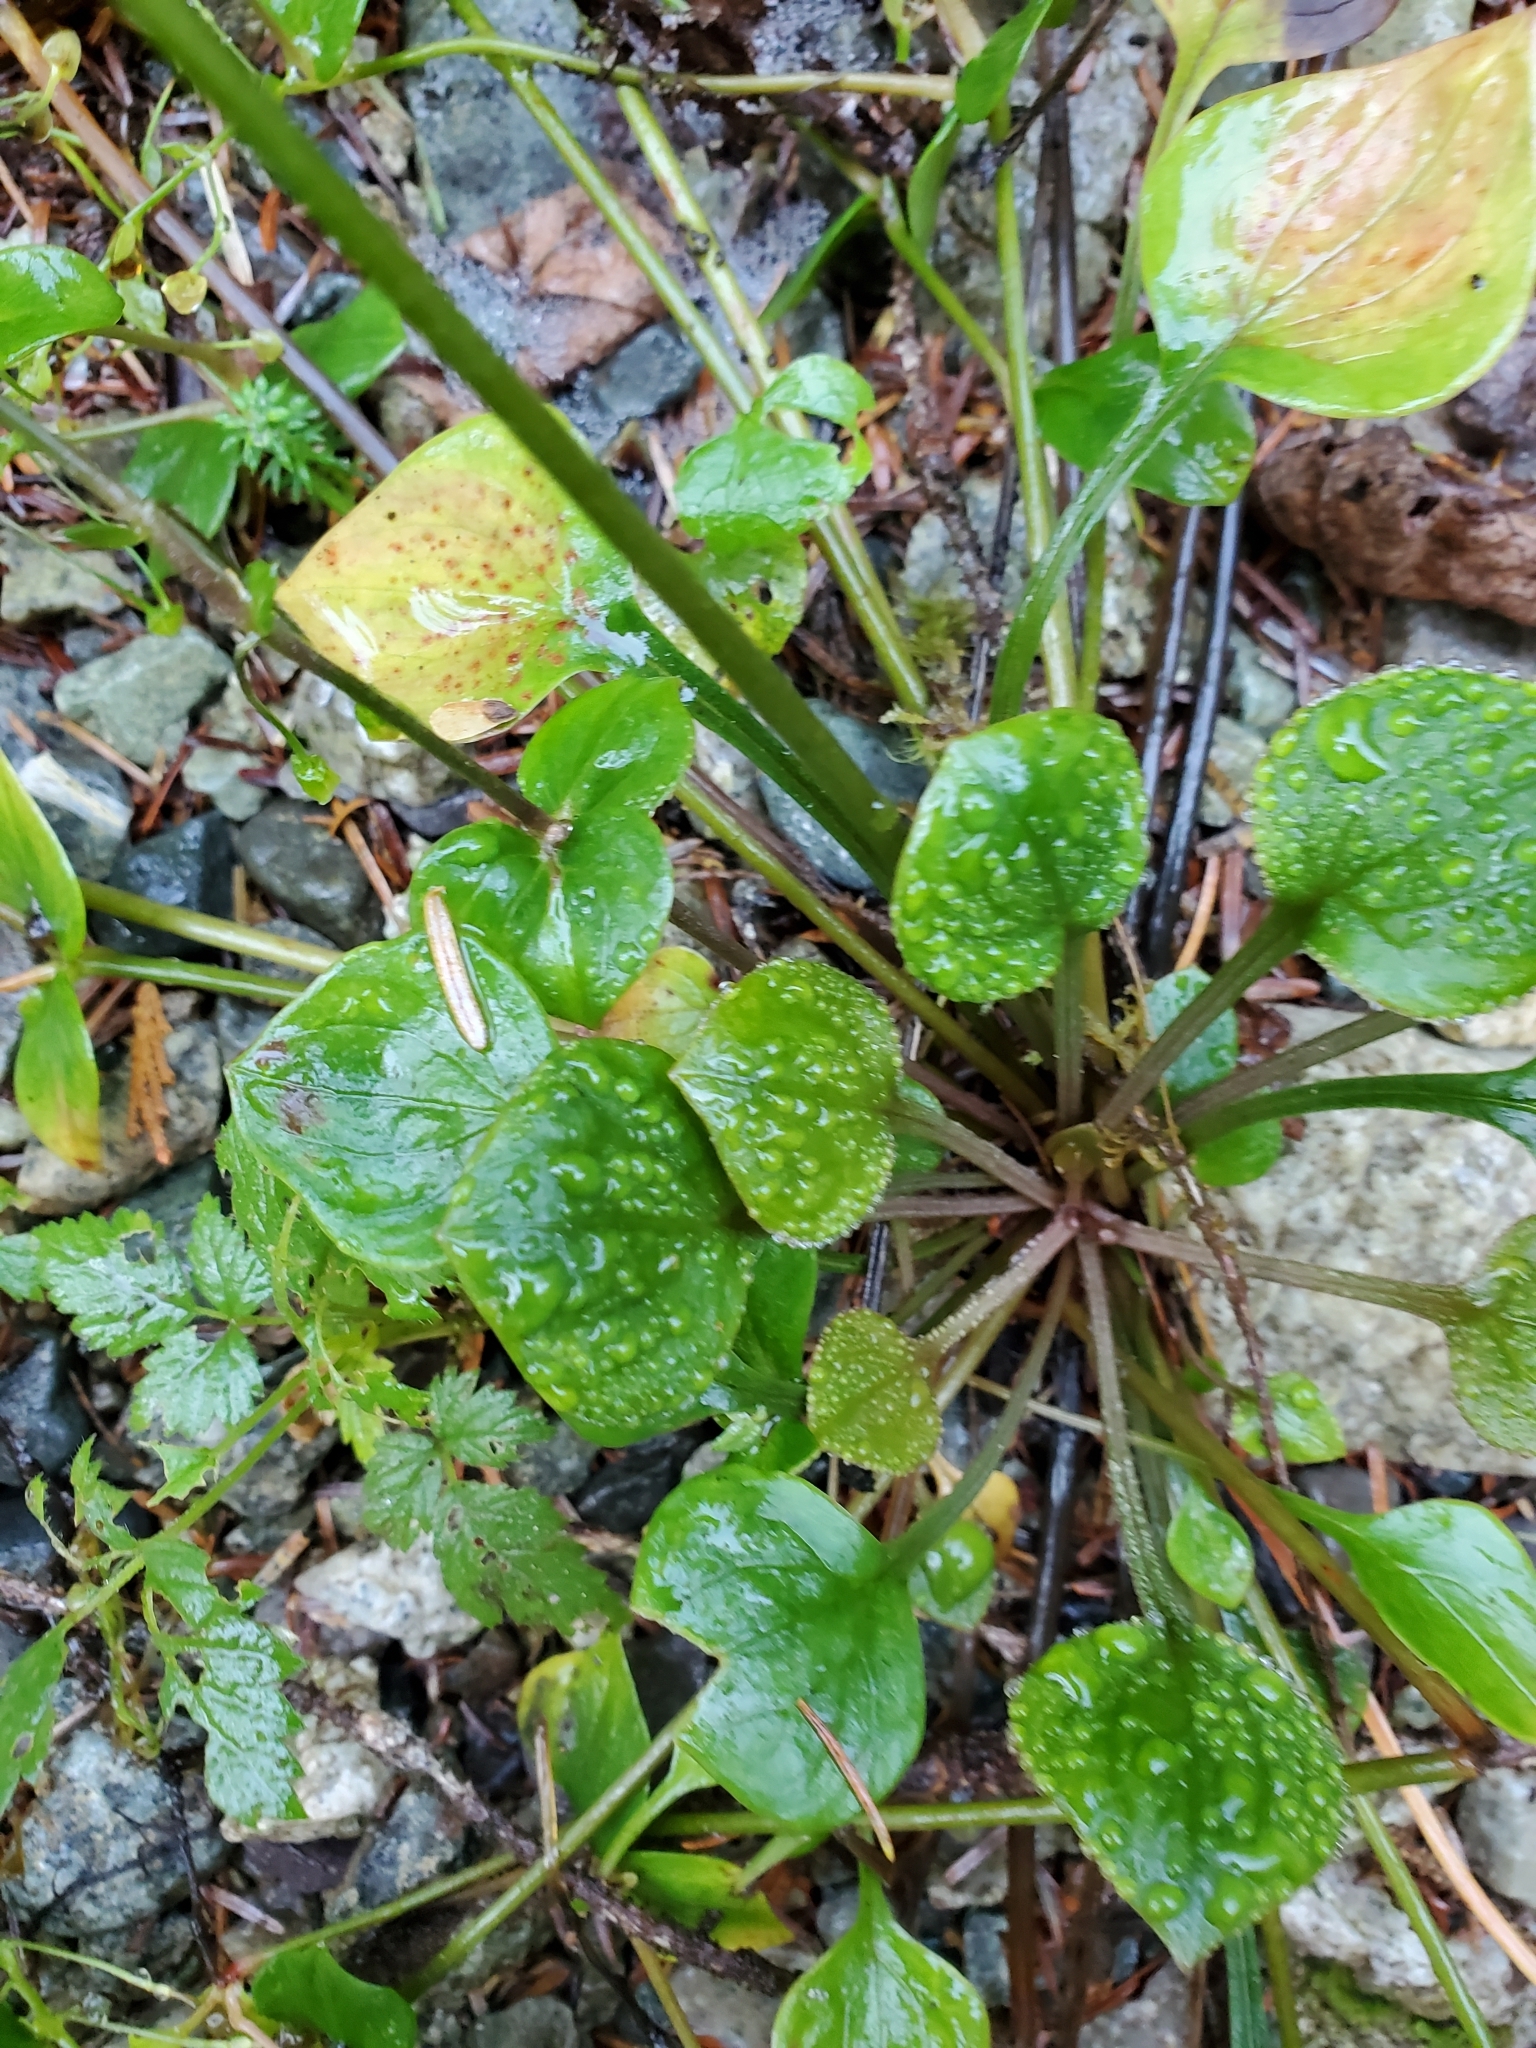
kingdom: Plantae
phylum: Tracheophyta
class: Magnoliopsida
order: Caryophyllales
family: Montiaceae
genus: Claytonia
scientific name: Claytonia sibirica
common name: Pink purslane
